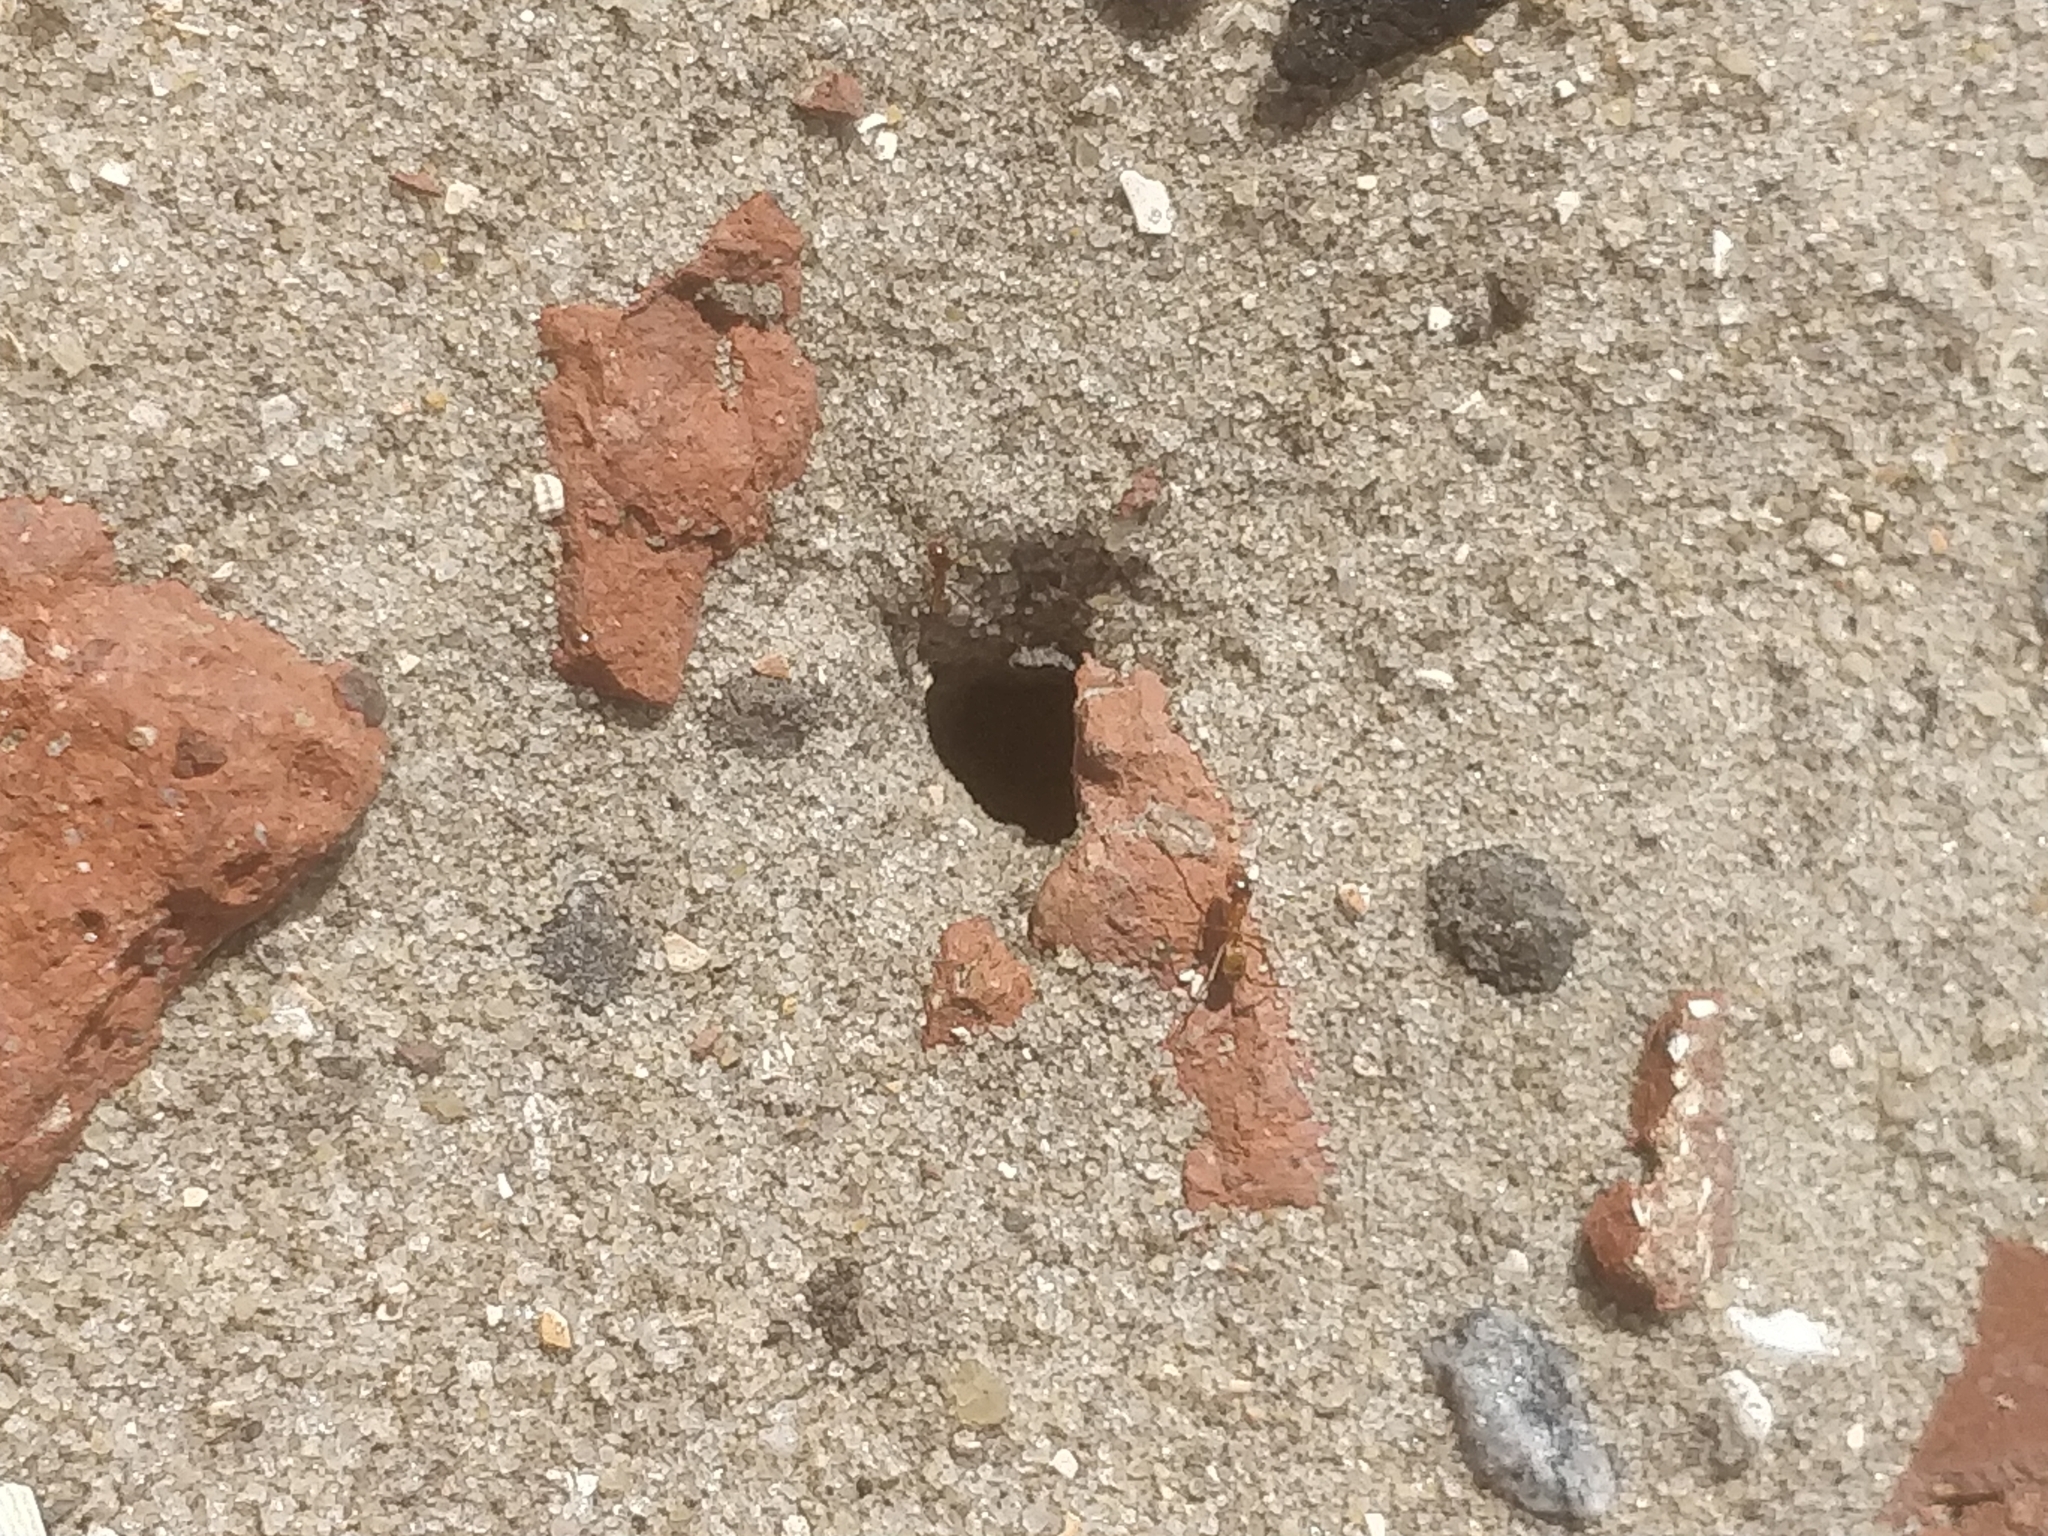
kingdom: Animalia
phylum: Arthropoda
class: Insecta
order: Hymenoptera
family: Formicidae
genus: Dorymyrmex
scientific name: Dorymyrmex bureni
